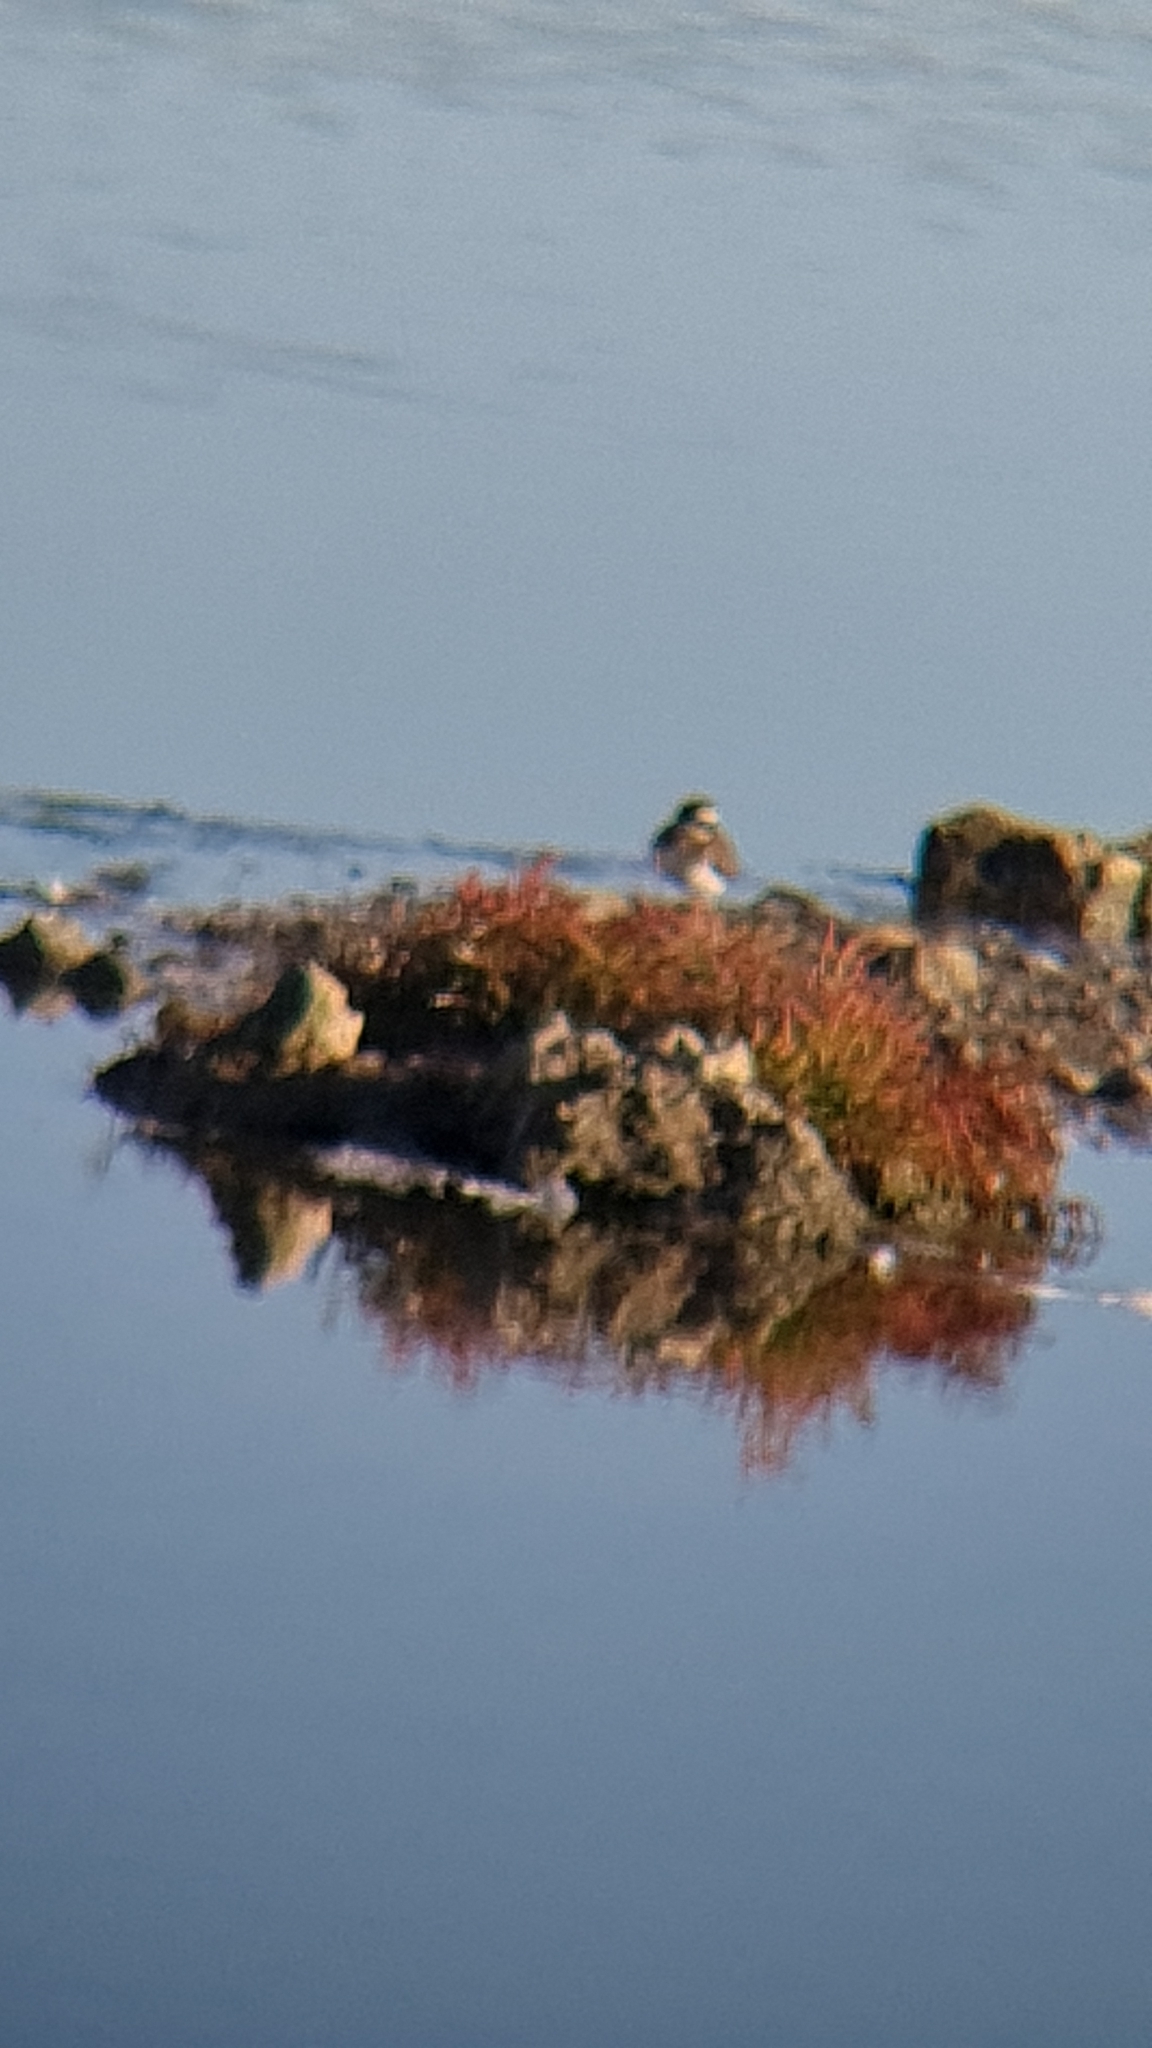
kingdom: Animalia
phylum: Chordata
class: Aves
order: Charadriiformes
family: Charadriidae
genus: Charadrius
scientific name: Charadrius hiaticula
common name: Common ringed plover
